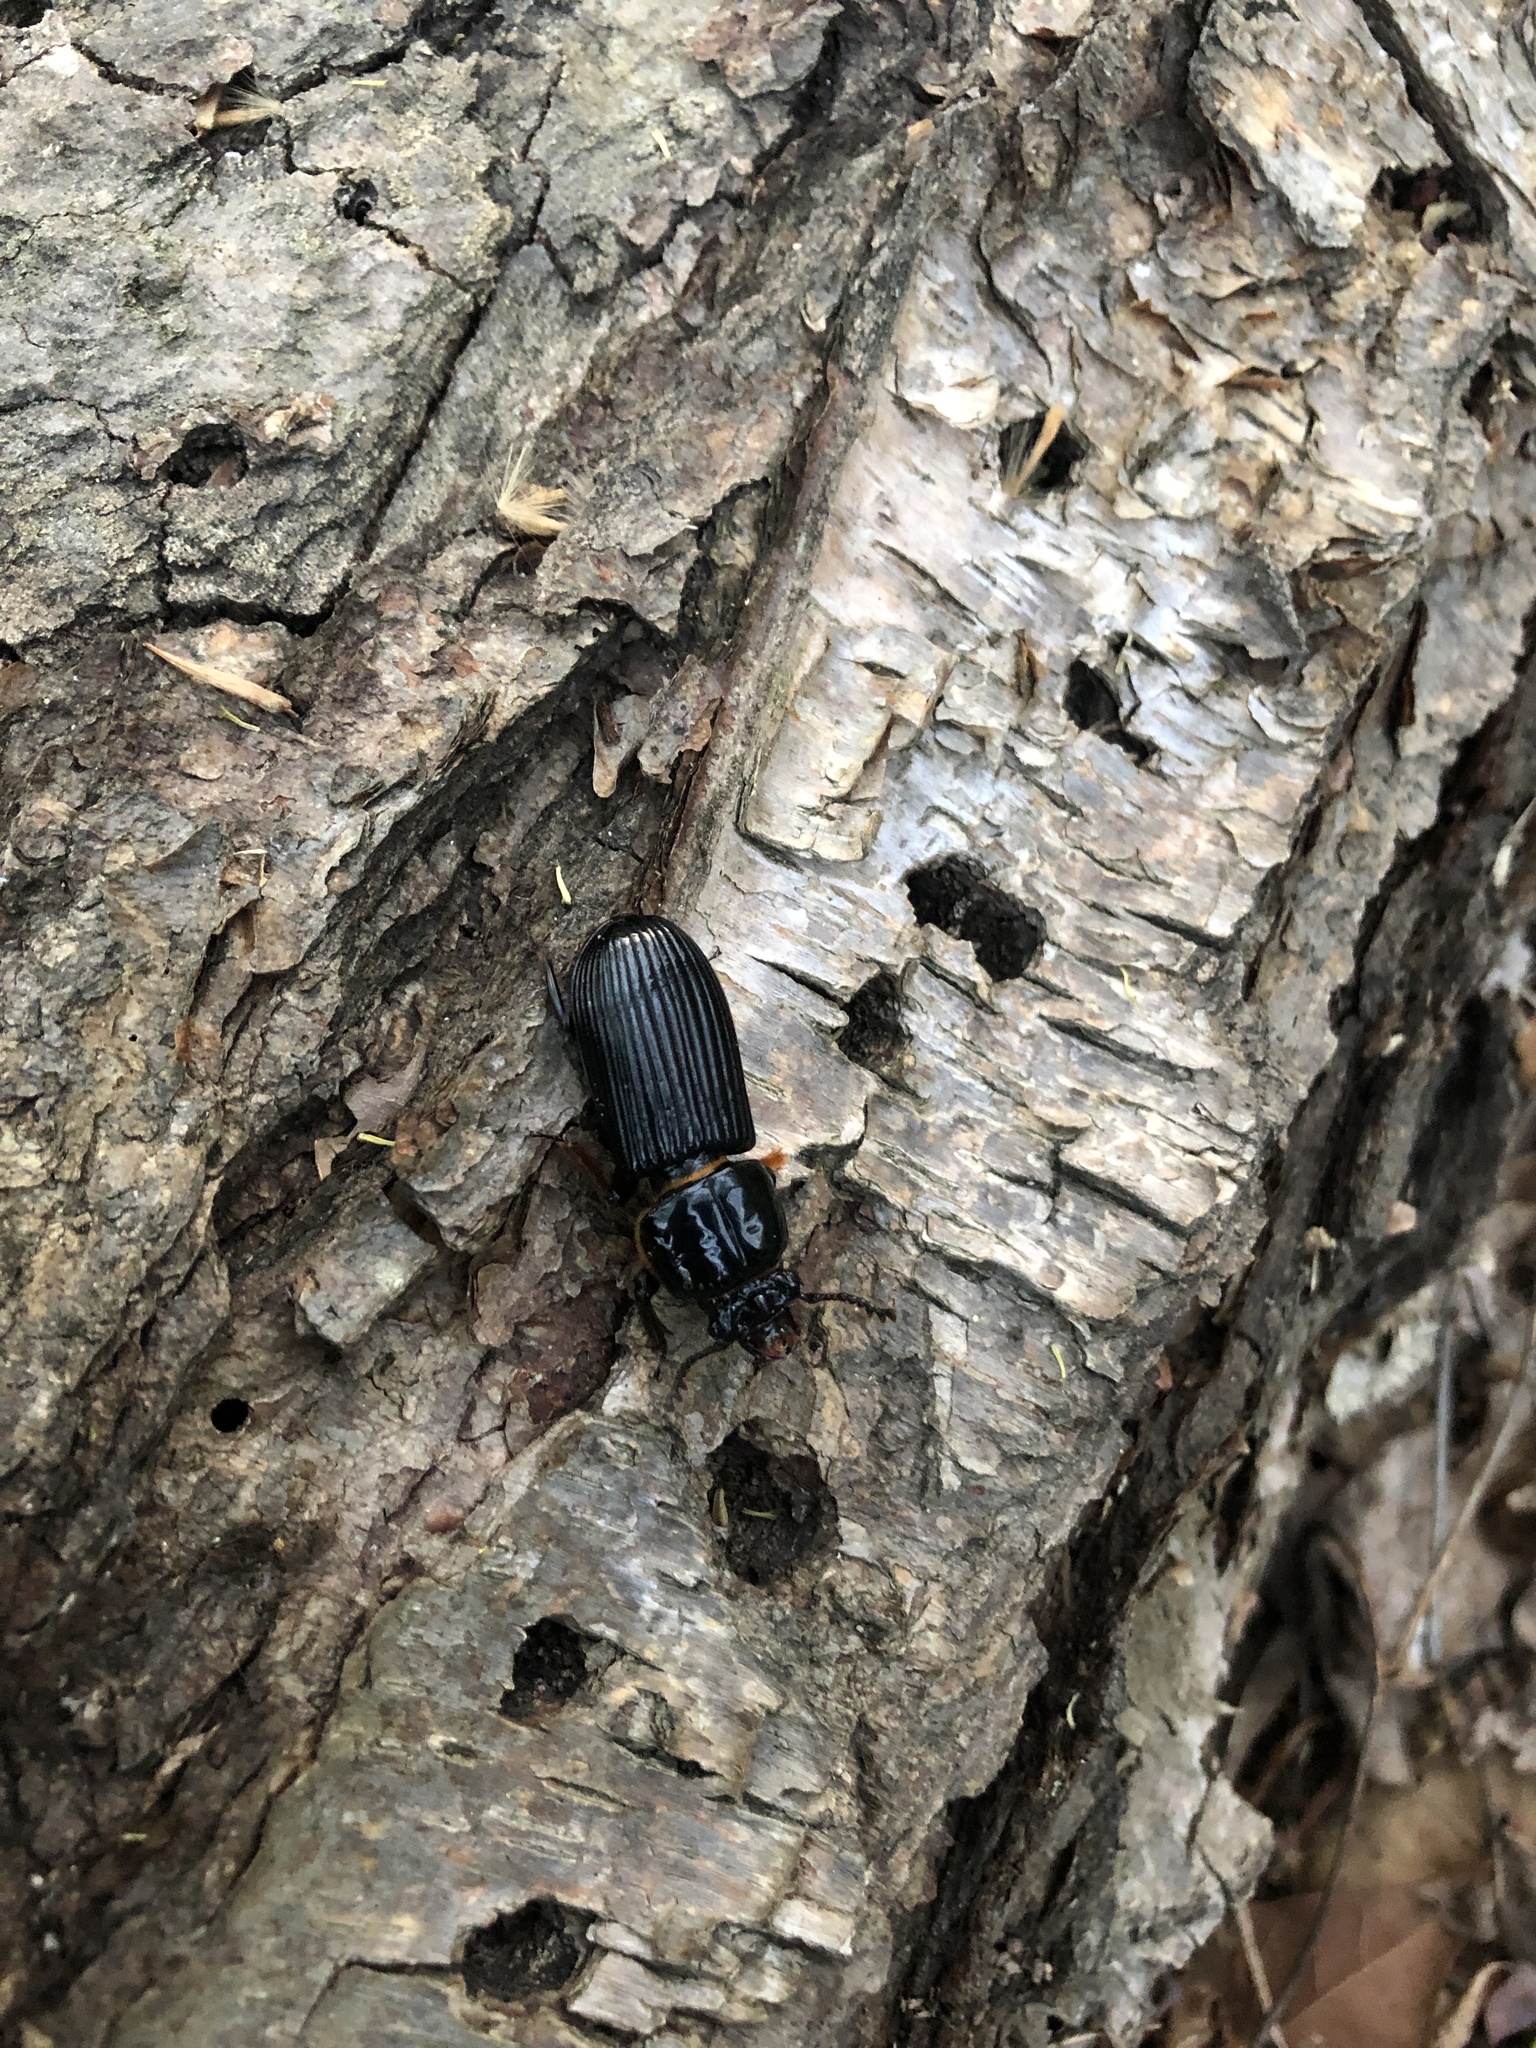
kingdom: Animalia
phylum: Arthropoda
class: Insecta
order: Coleoptera
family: Passalidae
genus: Odontotaenius
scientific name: Odontotaenius disjunctus
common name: Patent leather beetle
